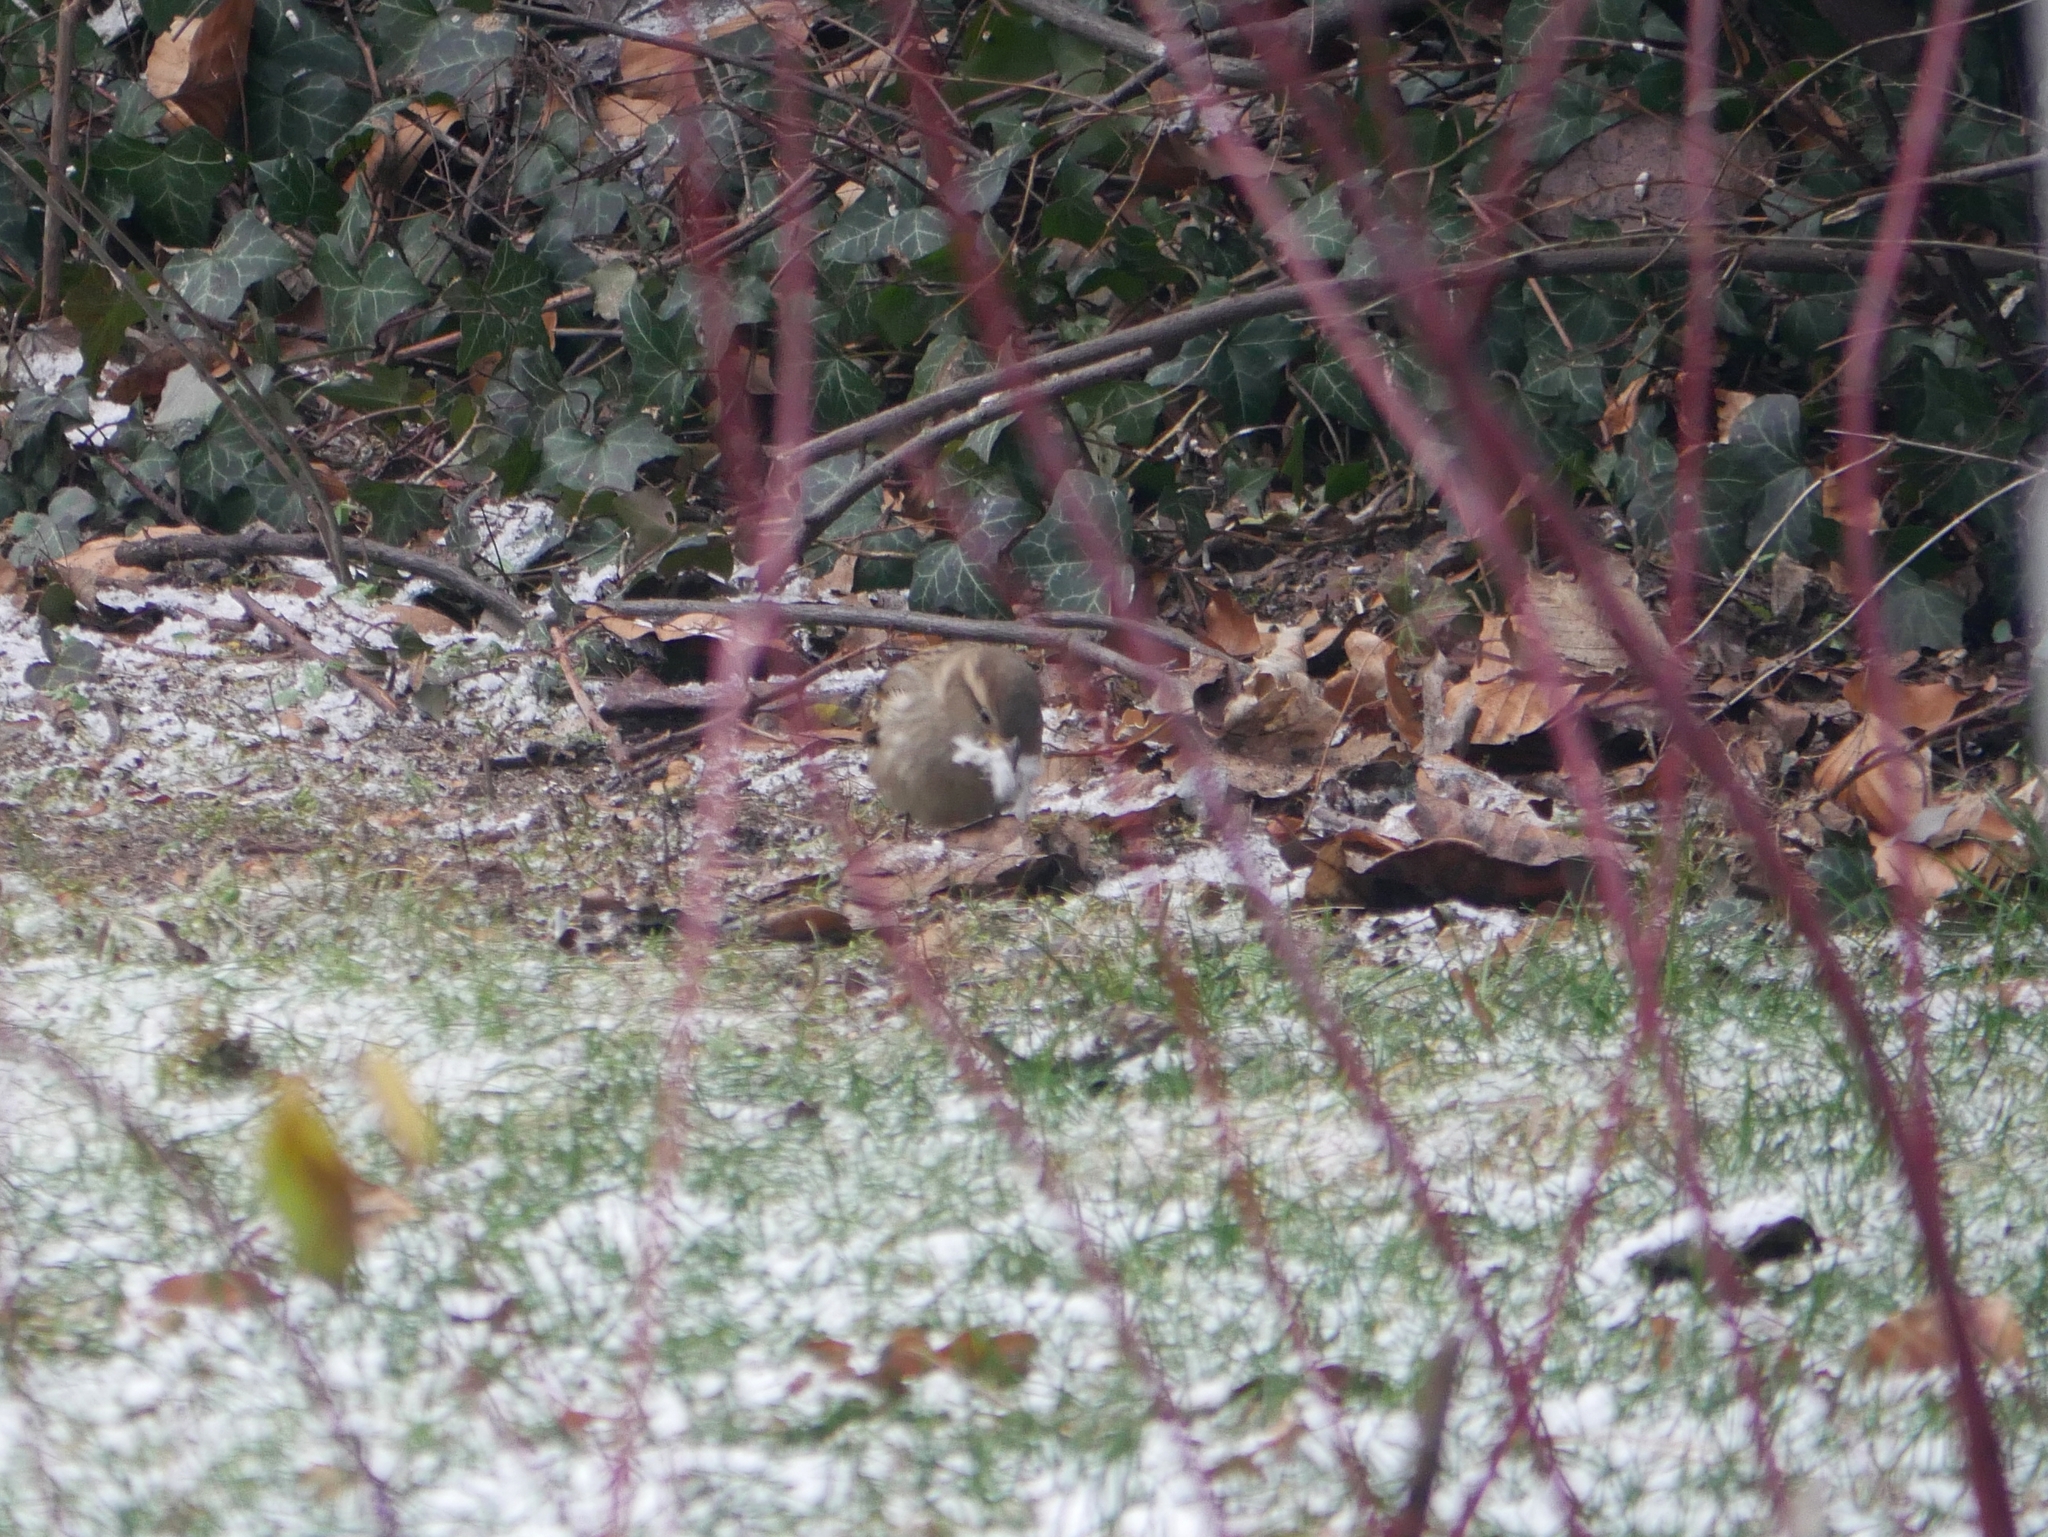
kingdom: Animalia
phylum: Chordata
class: Aves
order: Passeriformes
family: Passeridae
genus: Passer
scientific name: Passer domesticus
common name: House sparrow
